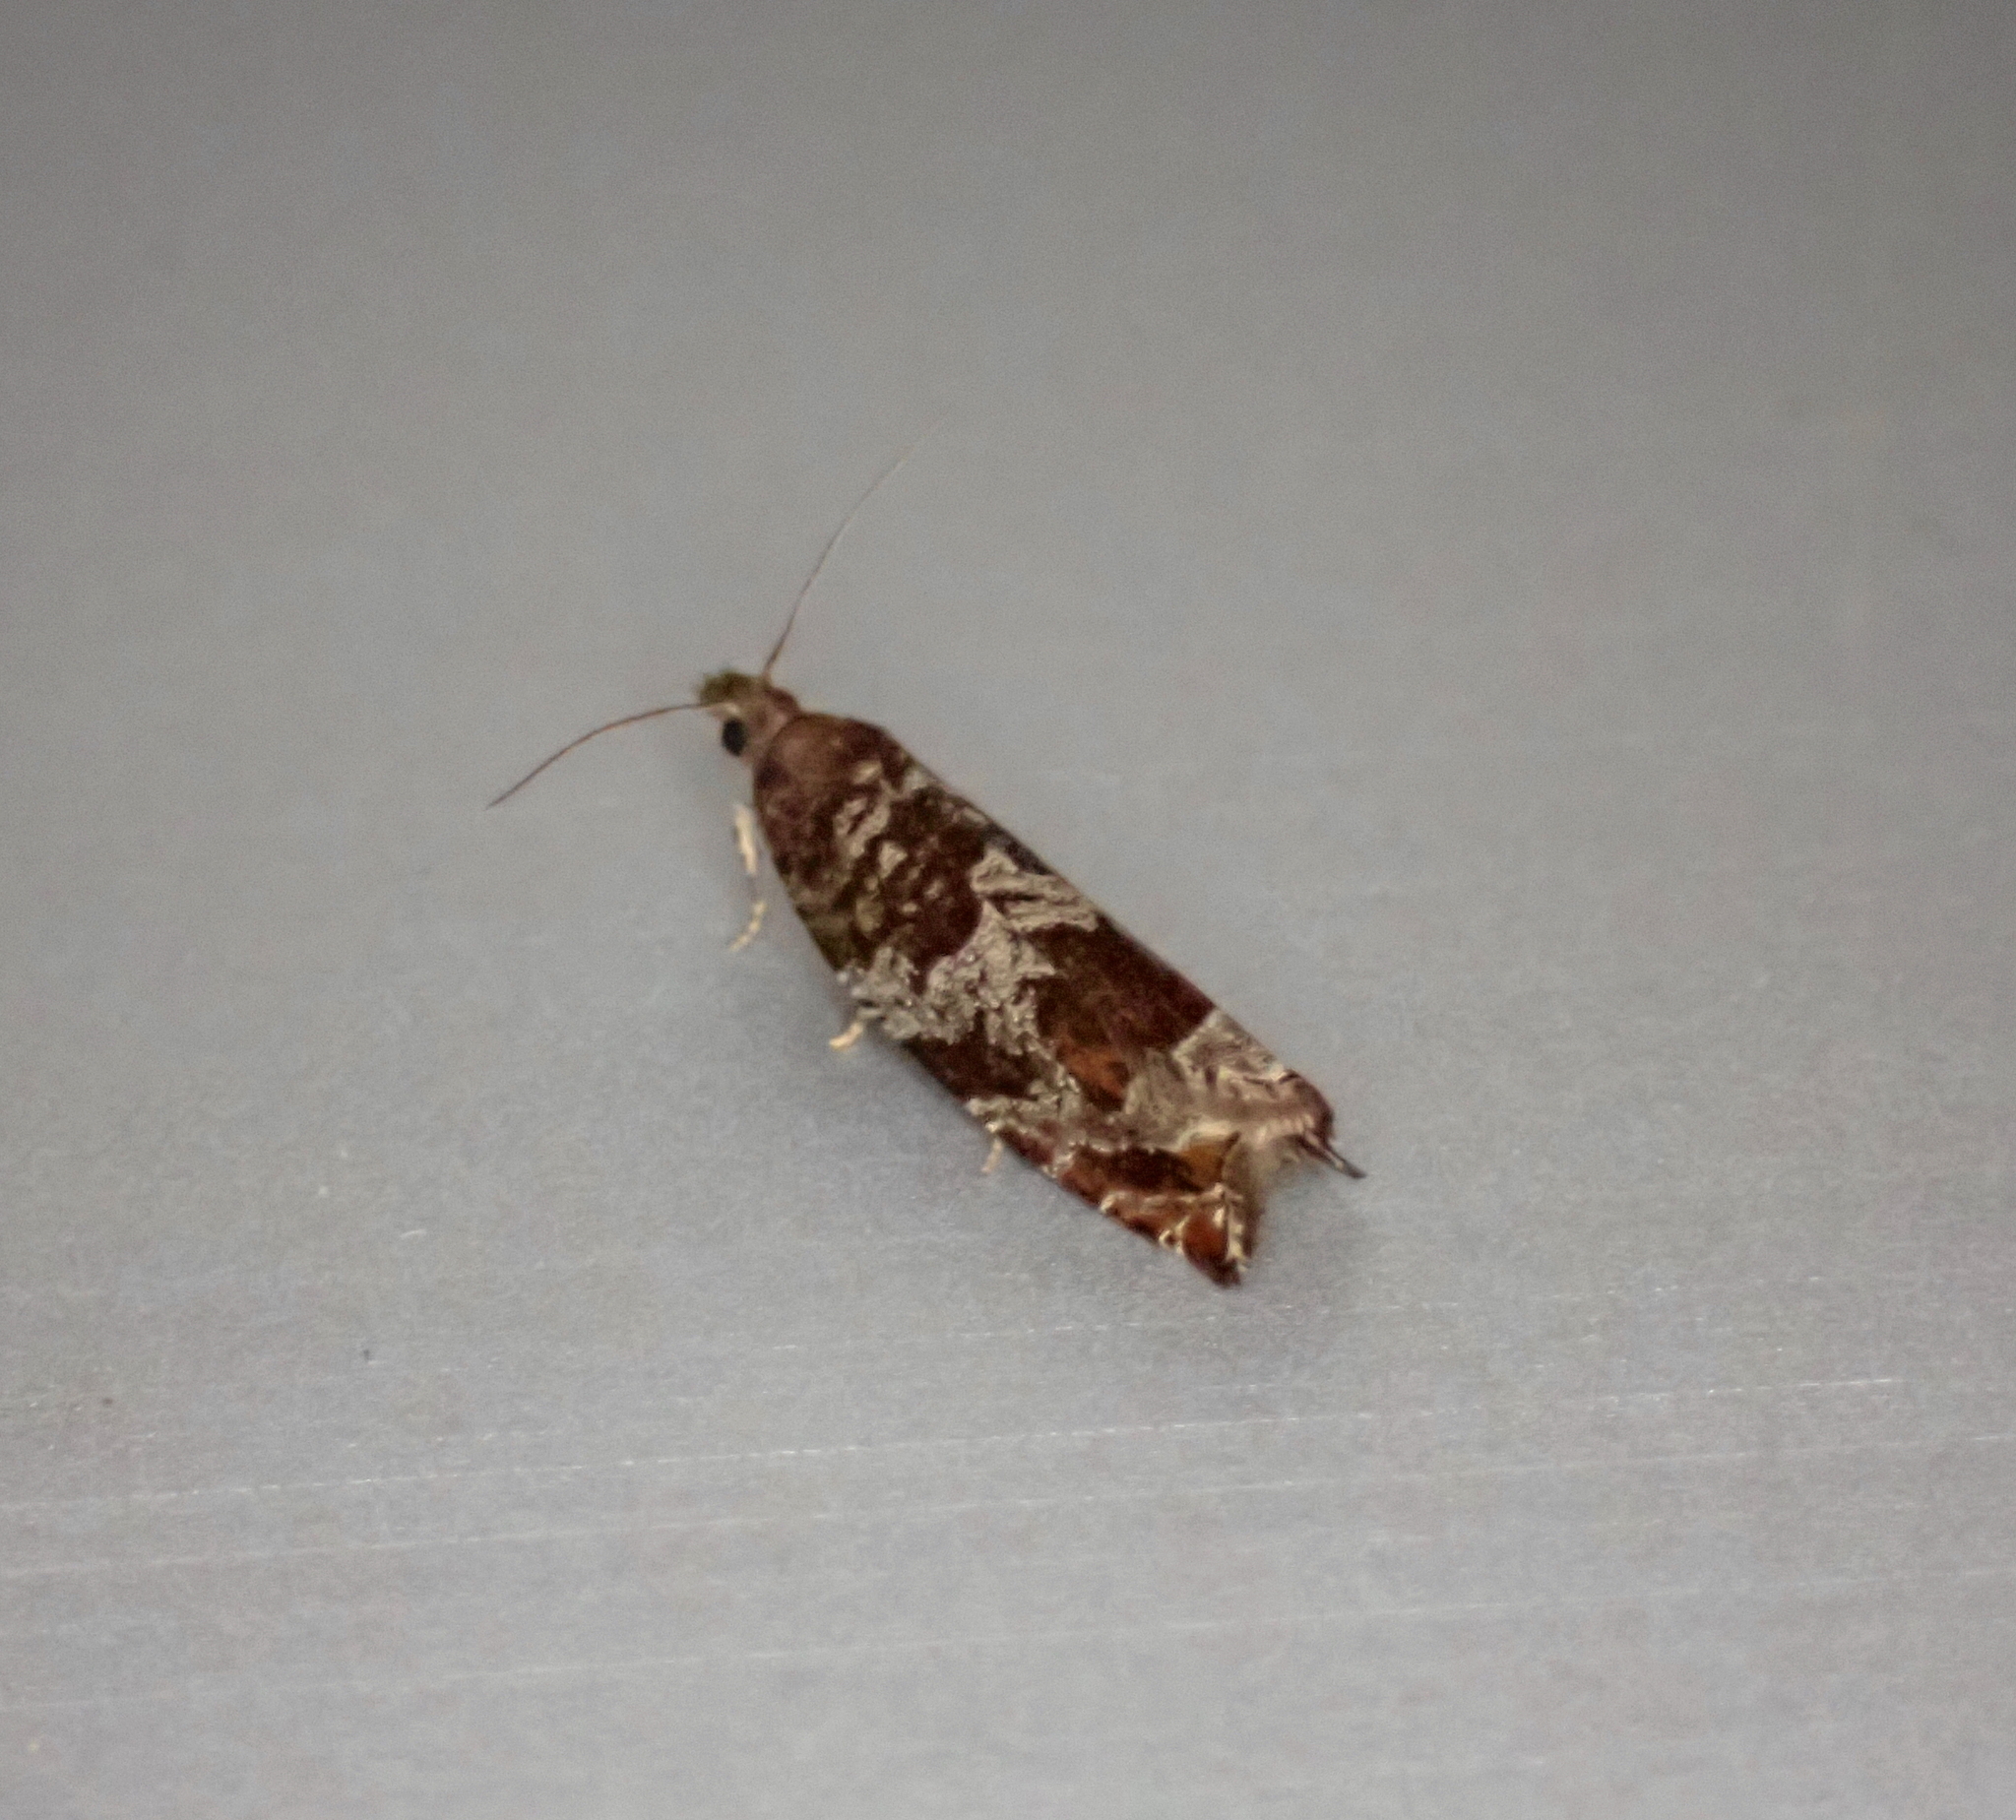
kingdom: Animalia
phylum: Arthropoda
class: Insecta
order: Lepidoptera
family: Tortricidae
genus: Ancylis
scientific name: Ancylis achatana
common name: Triangle-marked roller
